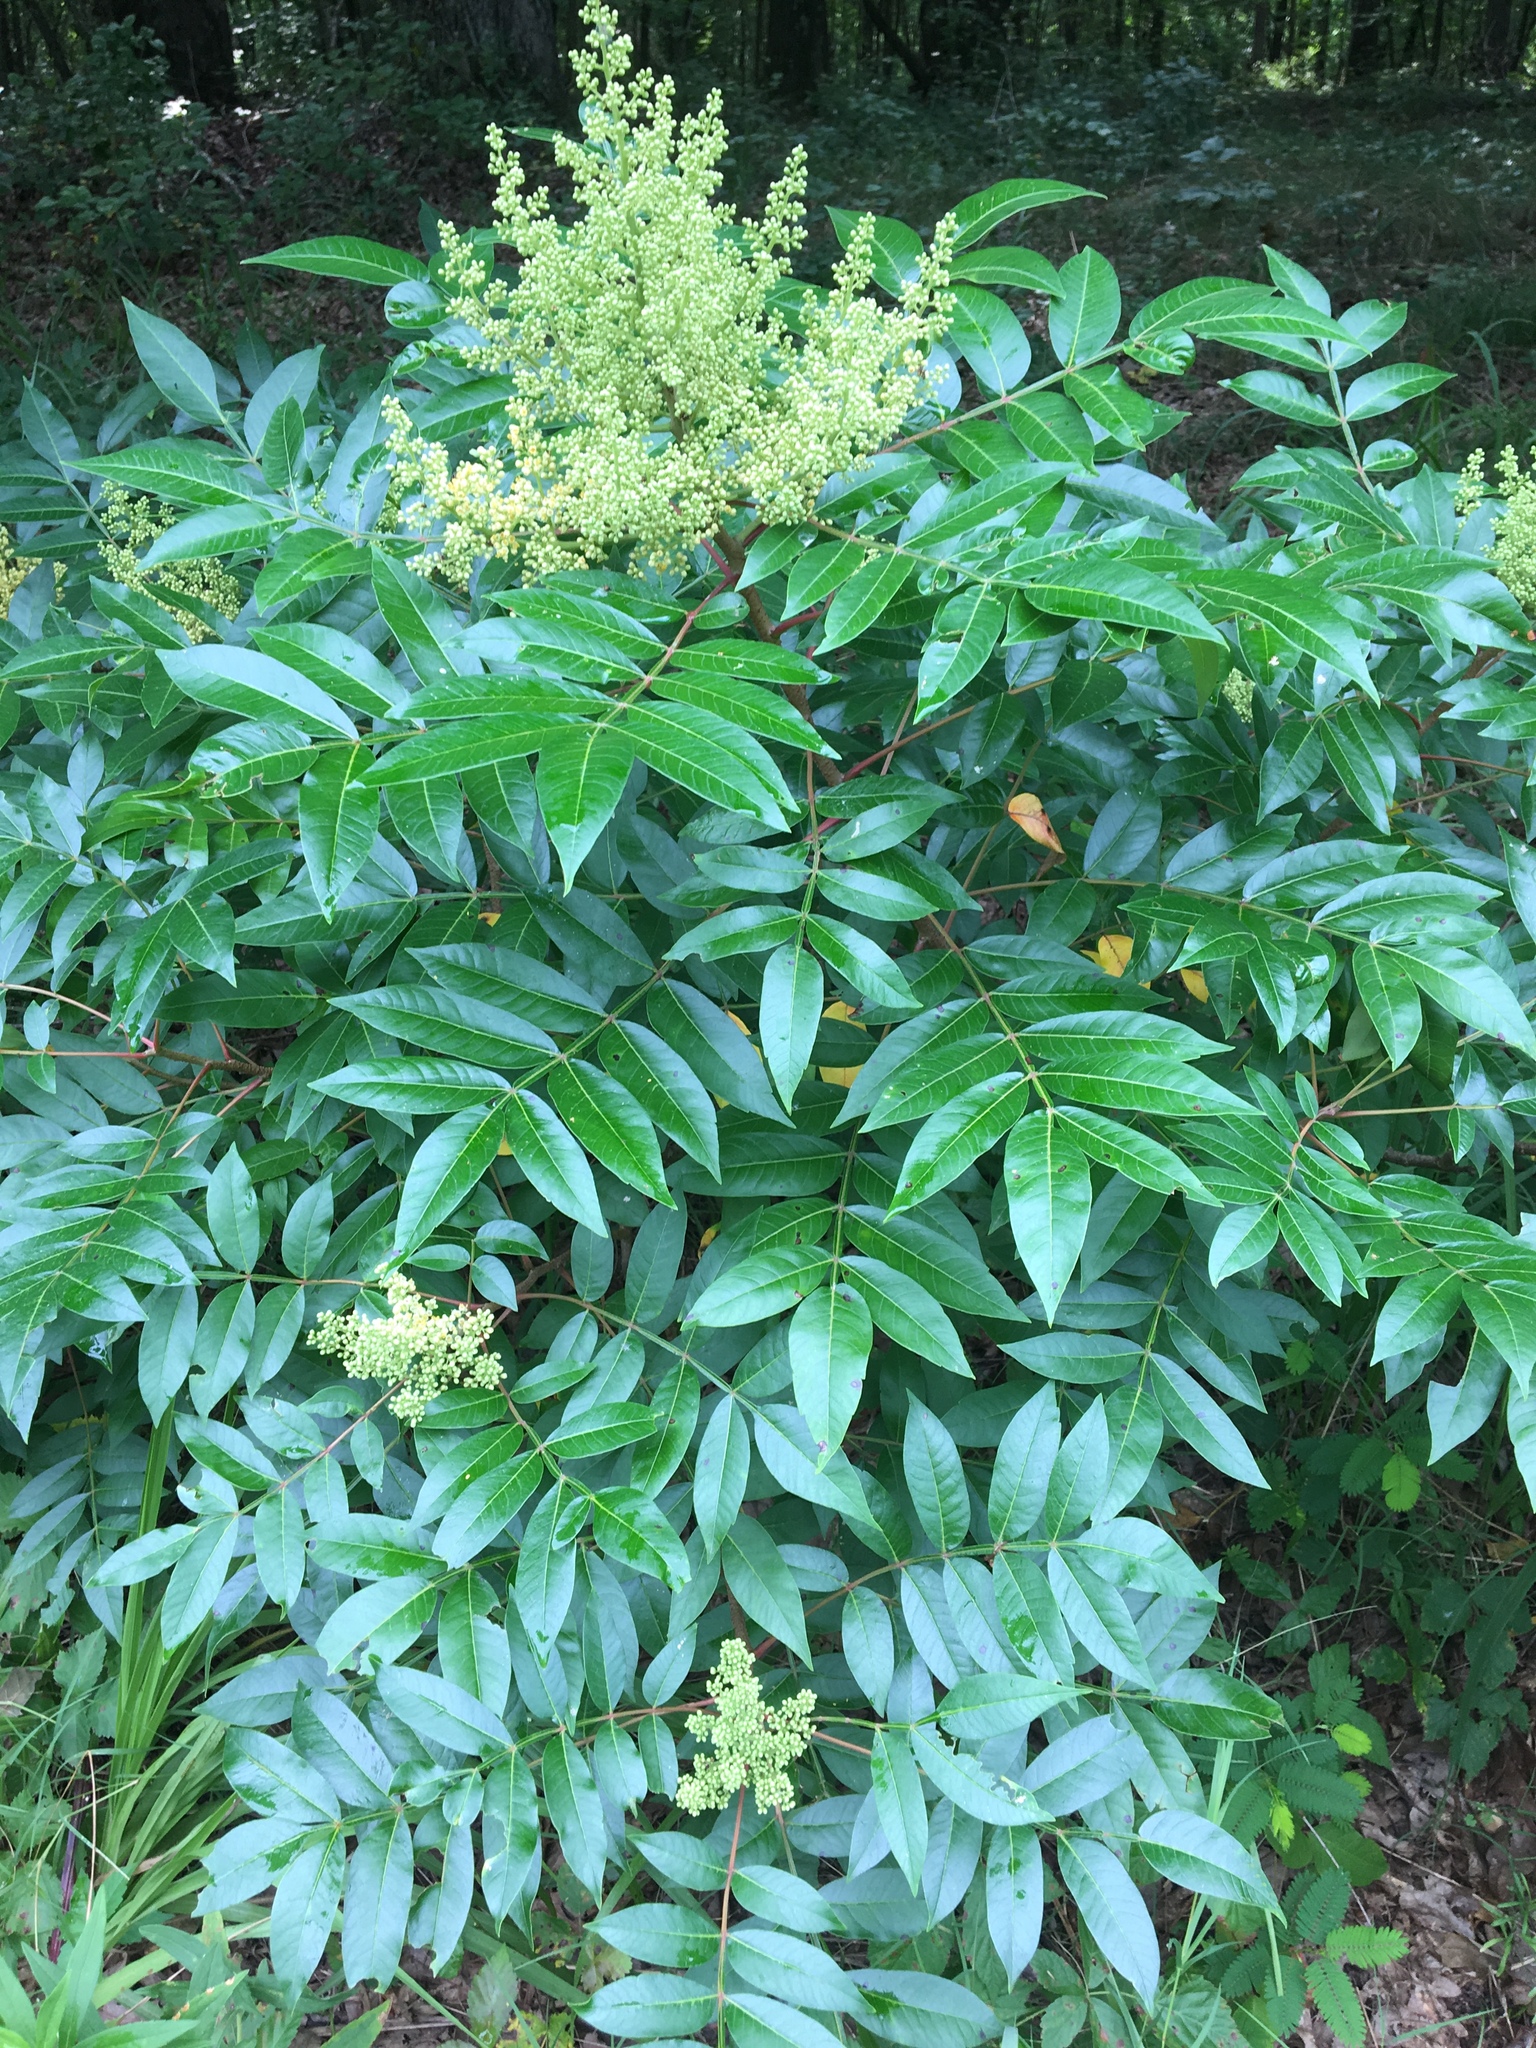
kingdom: Plantae
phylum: Tracheophyta
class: Magnoliopsida
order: Sapindales
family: Anacardiaceae
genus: Rhus
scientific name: Rhus copallina
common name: Shining sumac
